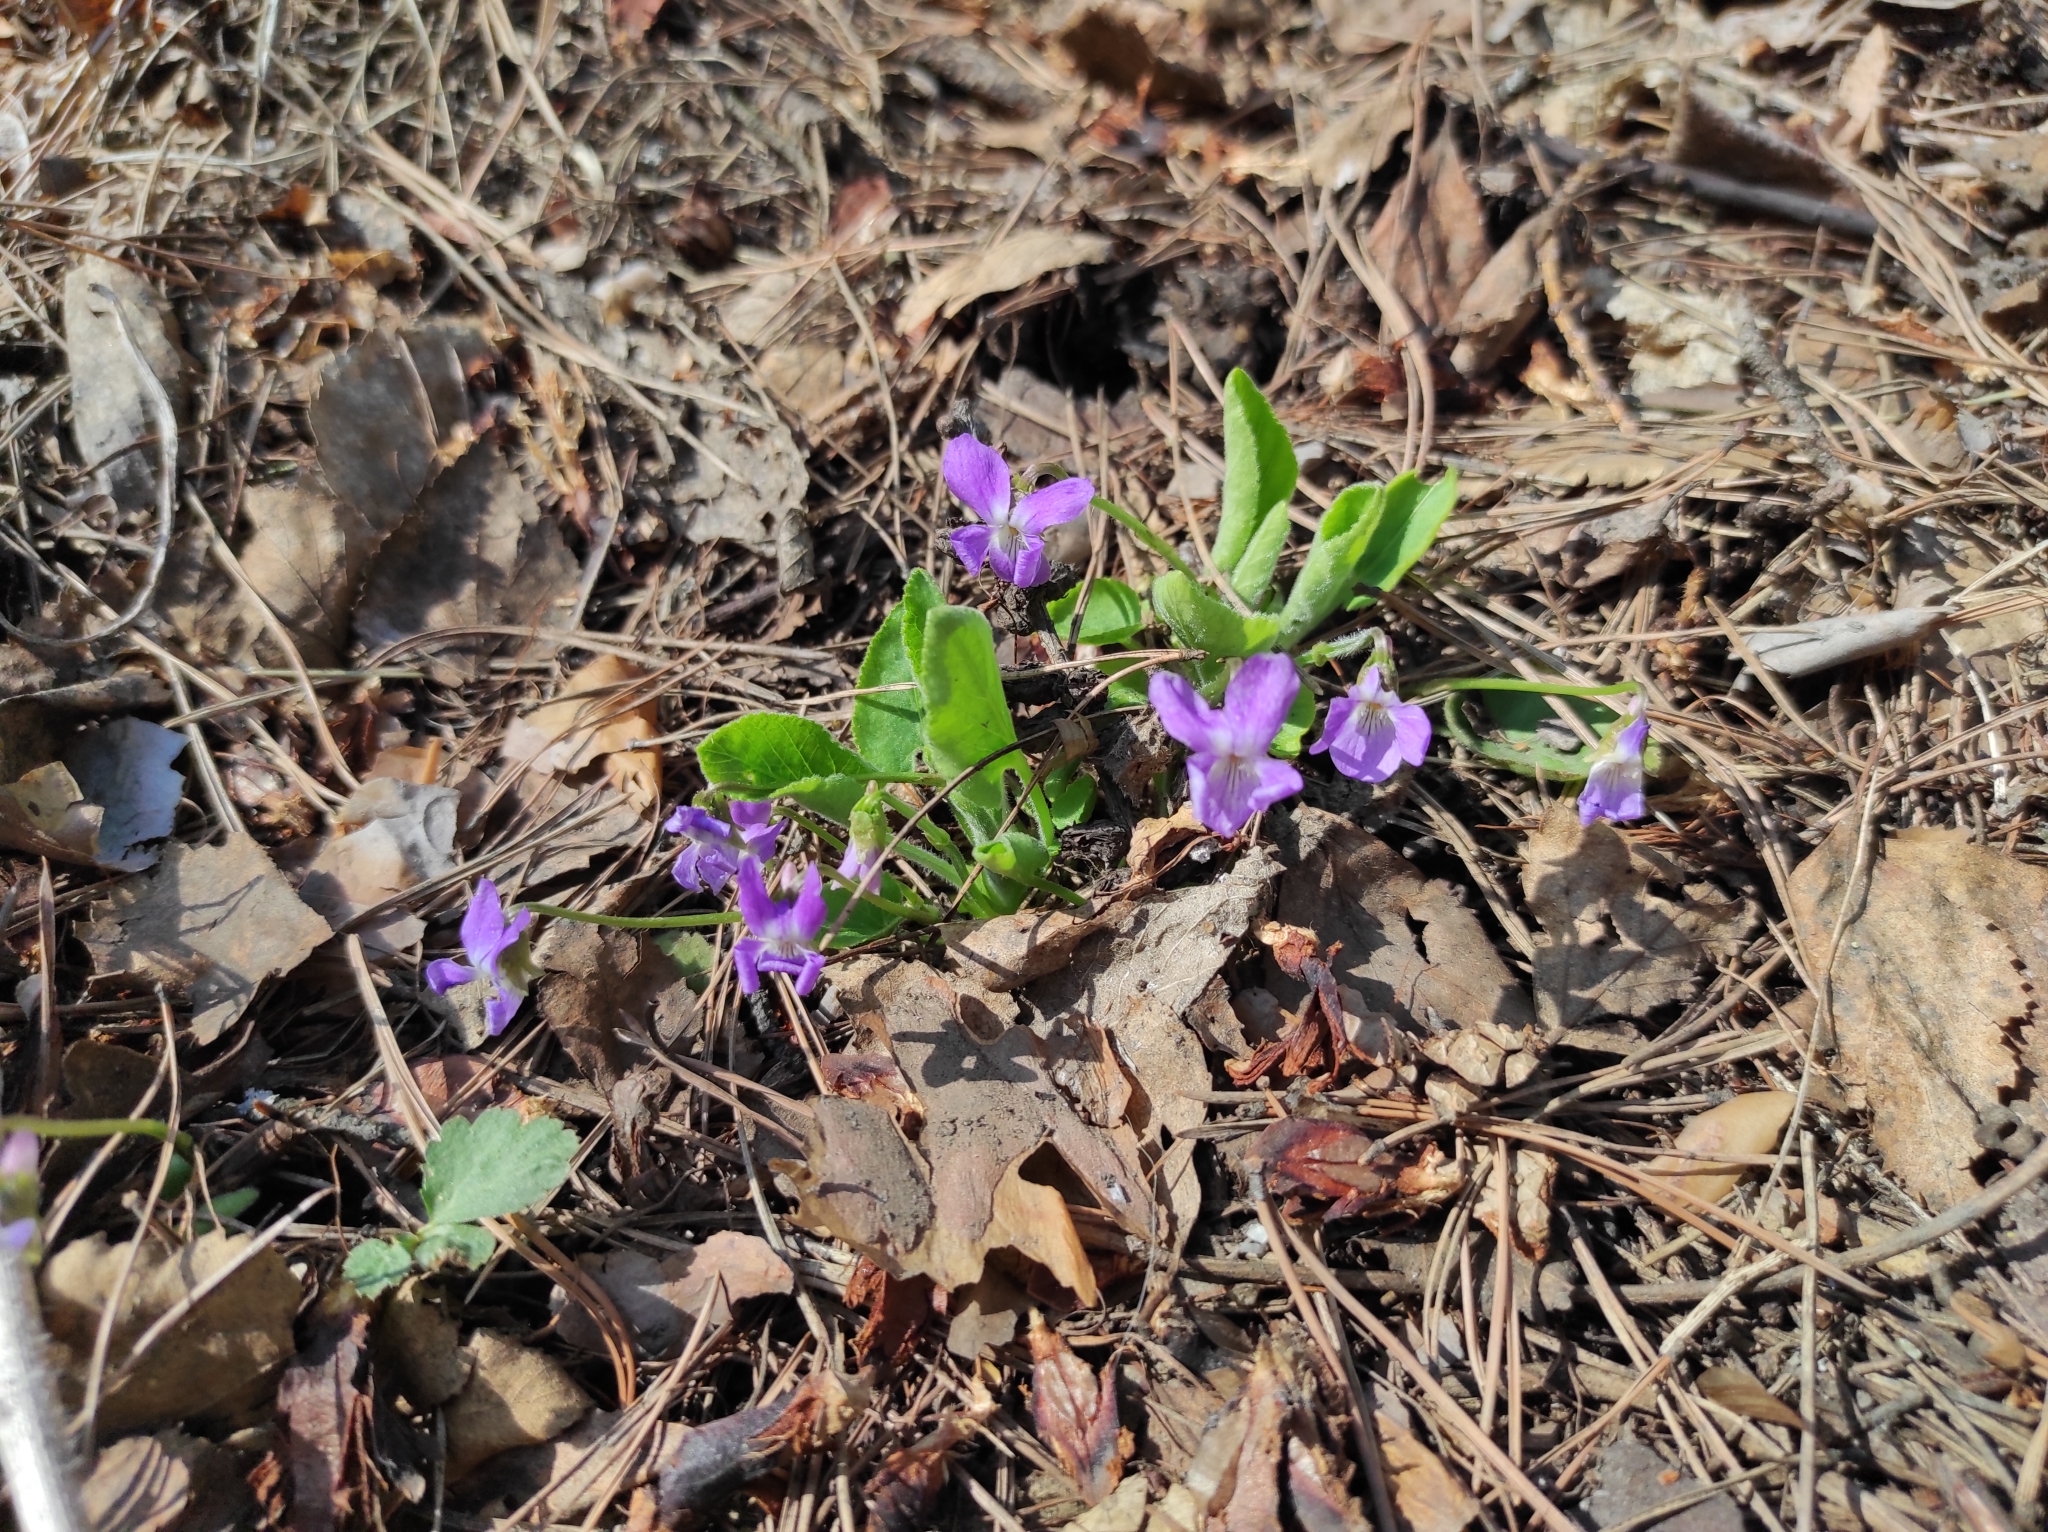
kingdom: Plantae
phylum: Tracheophyta
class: Magnoliopsida
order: Malpighiales
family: Violaceae
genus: Viola
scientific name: Viola hirta
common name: Hairy violet
